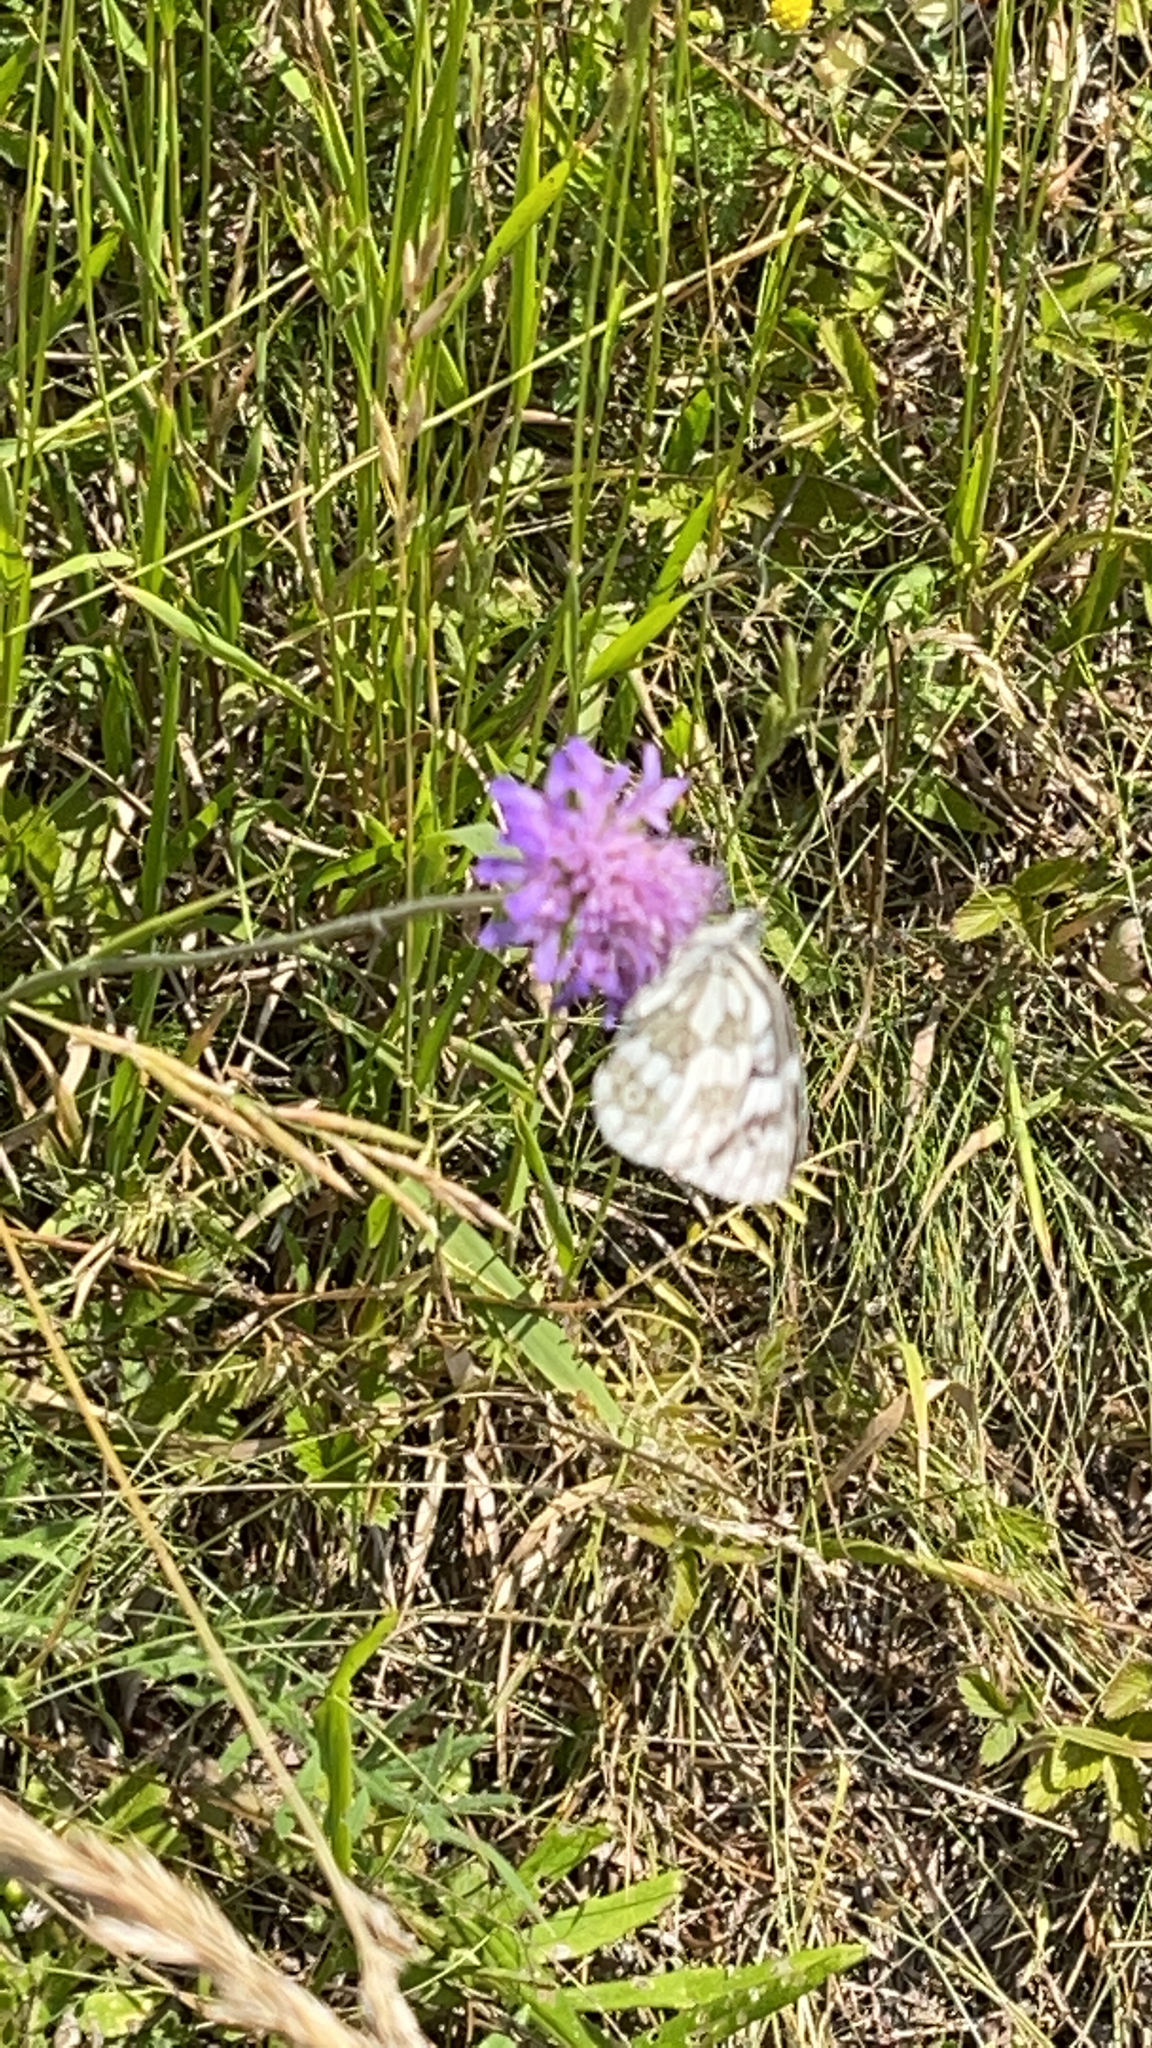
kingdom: Animalia
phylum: Arthropoda
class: Insecta
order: Lepidoptera
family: Nymphalidae
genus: Melanargia
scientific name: Melanargia galathea
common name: Marbled white
